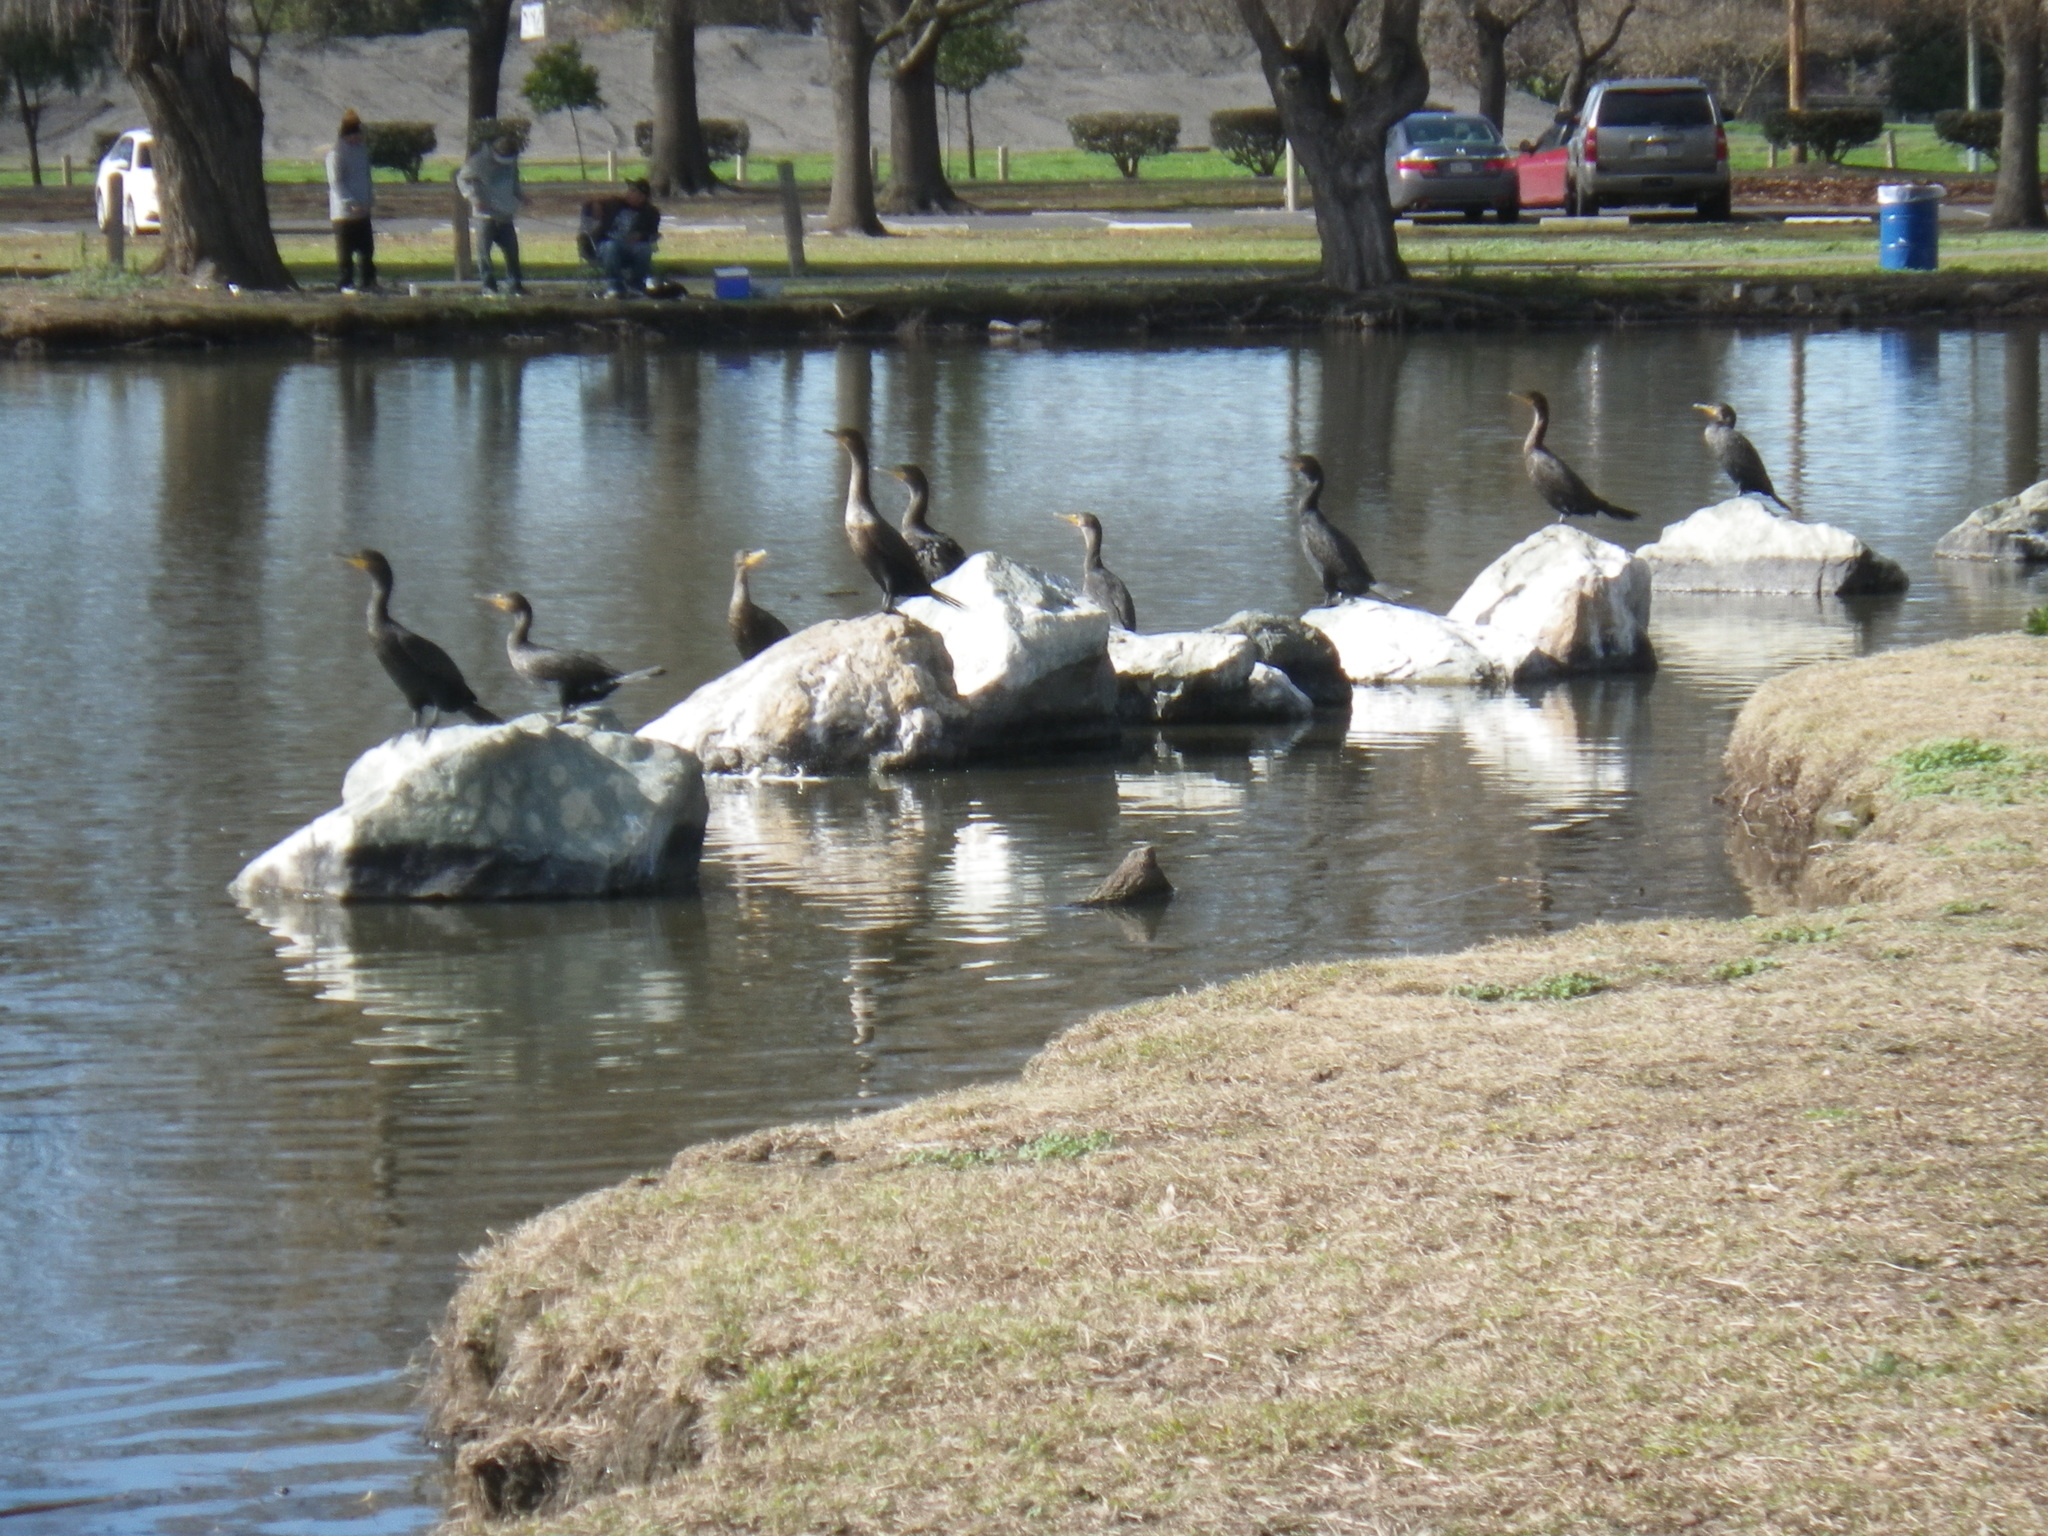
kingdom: Animalia
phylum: Chordata
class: Aves
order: Suliformes
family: Phalacrocoracidae
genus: Phalacrocorax
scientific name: Phalacrocorax auritus
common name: Double-crested cormorant
